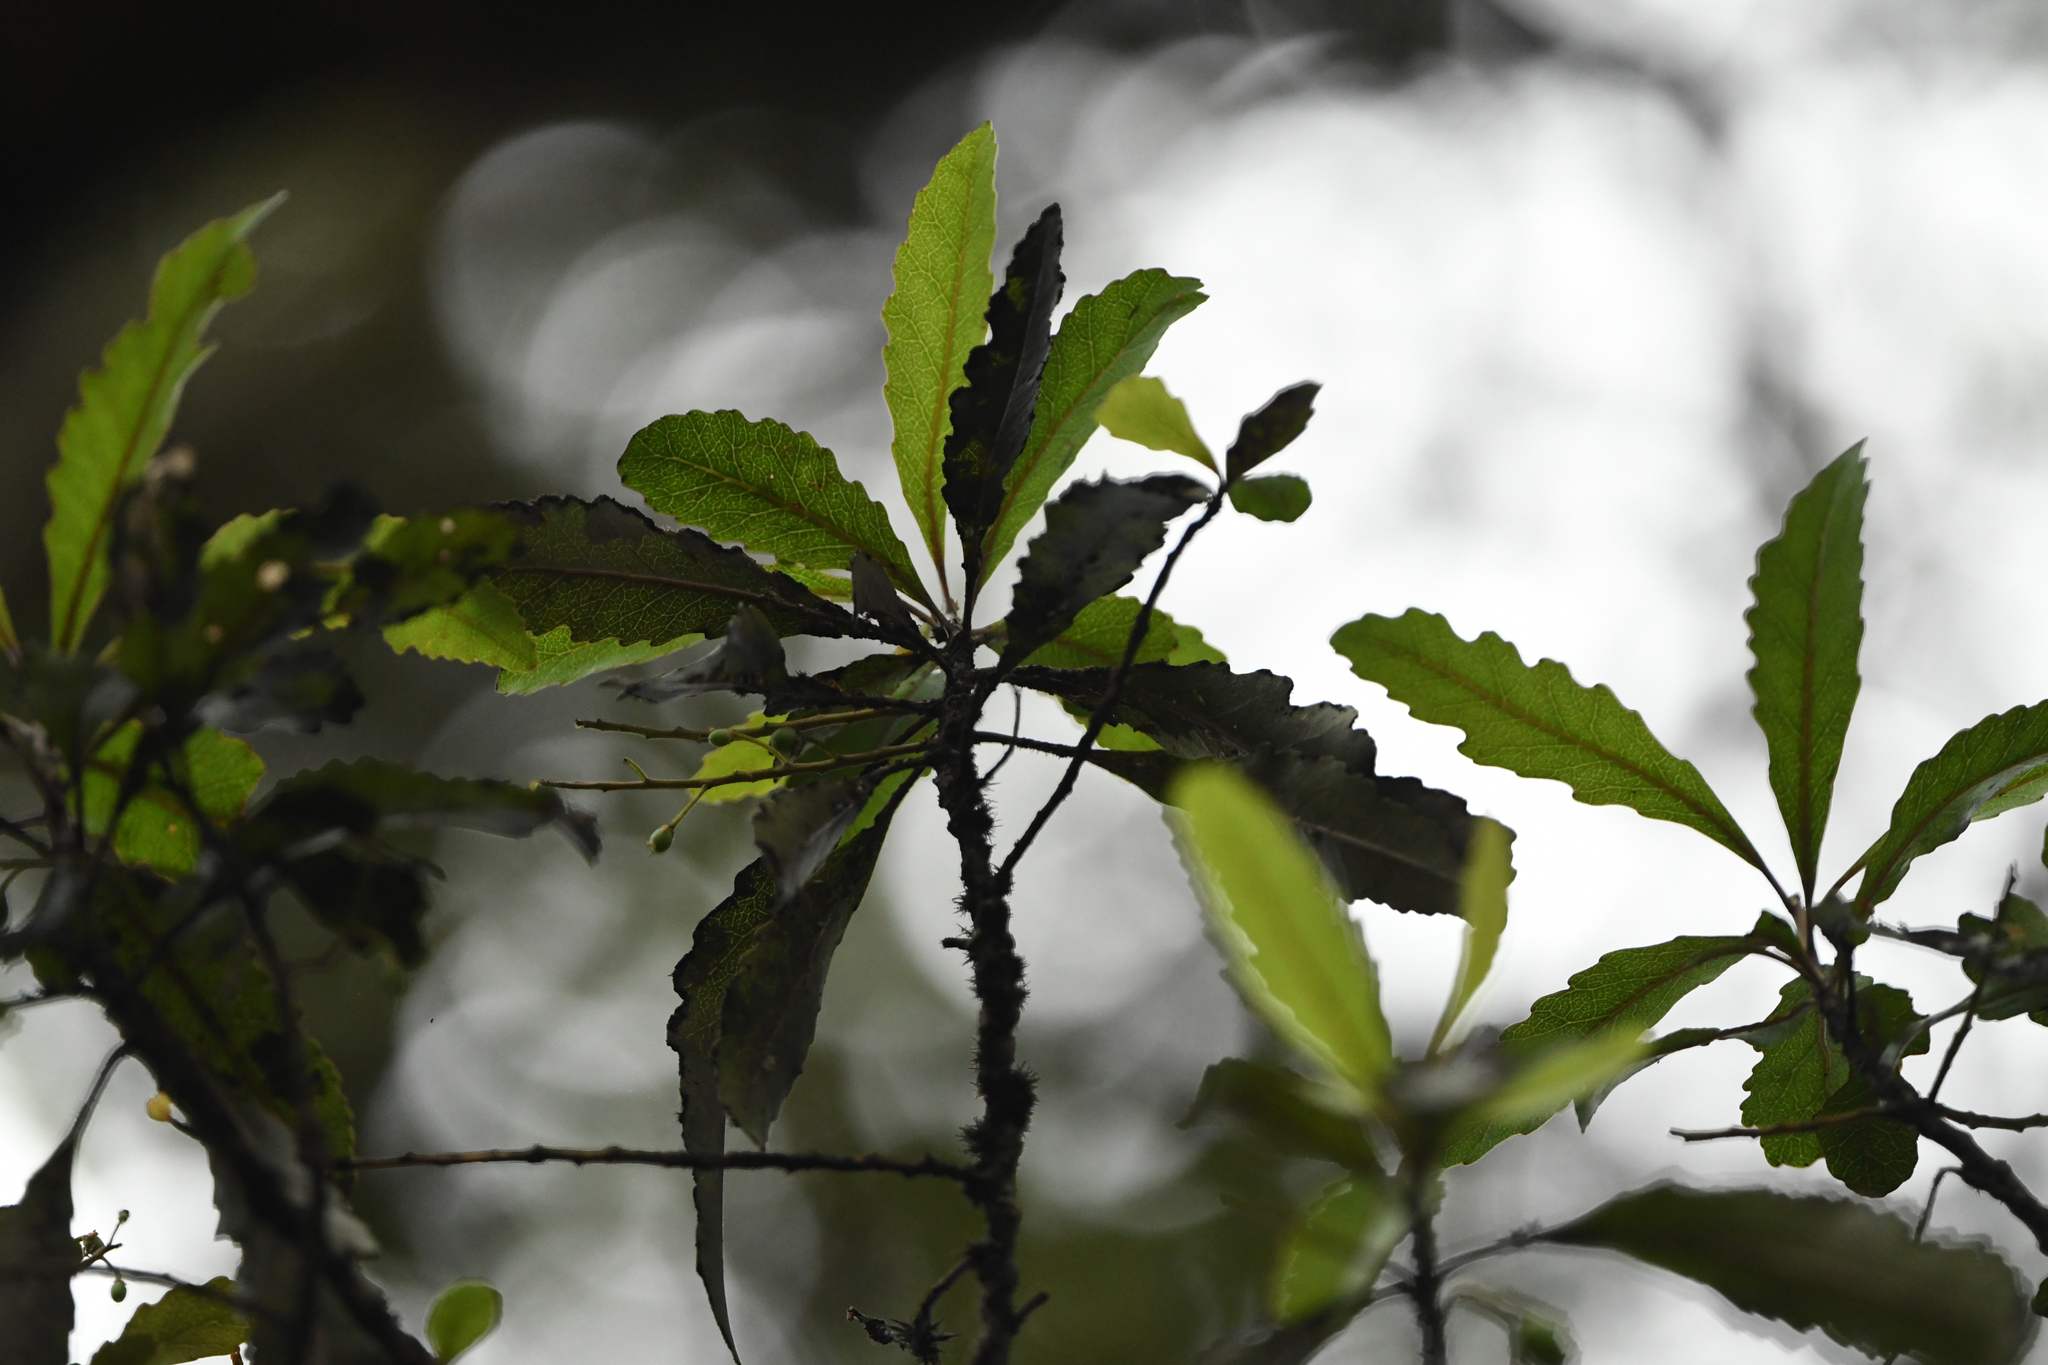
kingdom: Plantae
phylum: Tracheophyta
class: Magnoliopsida
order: Oxalidales
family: Elaeocarpaceae
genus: Elaeocarpus
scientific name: Elaeocarpus hookerianus
